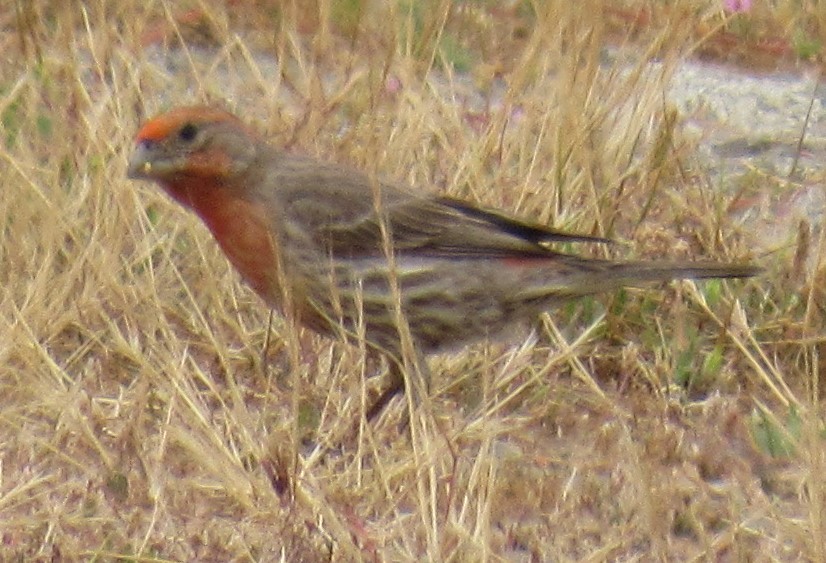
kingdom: Animalia
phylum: Chordata
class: Aves
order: Passeriformes
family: Fringillidae
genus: Haemorhous
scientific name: Haemorhous mexicanus
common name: House finch
